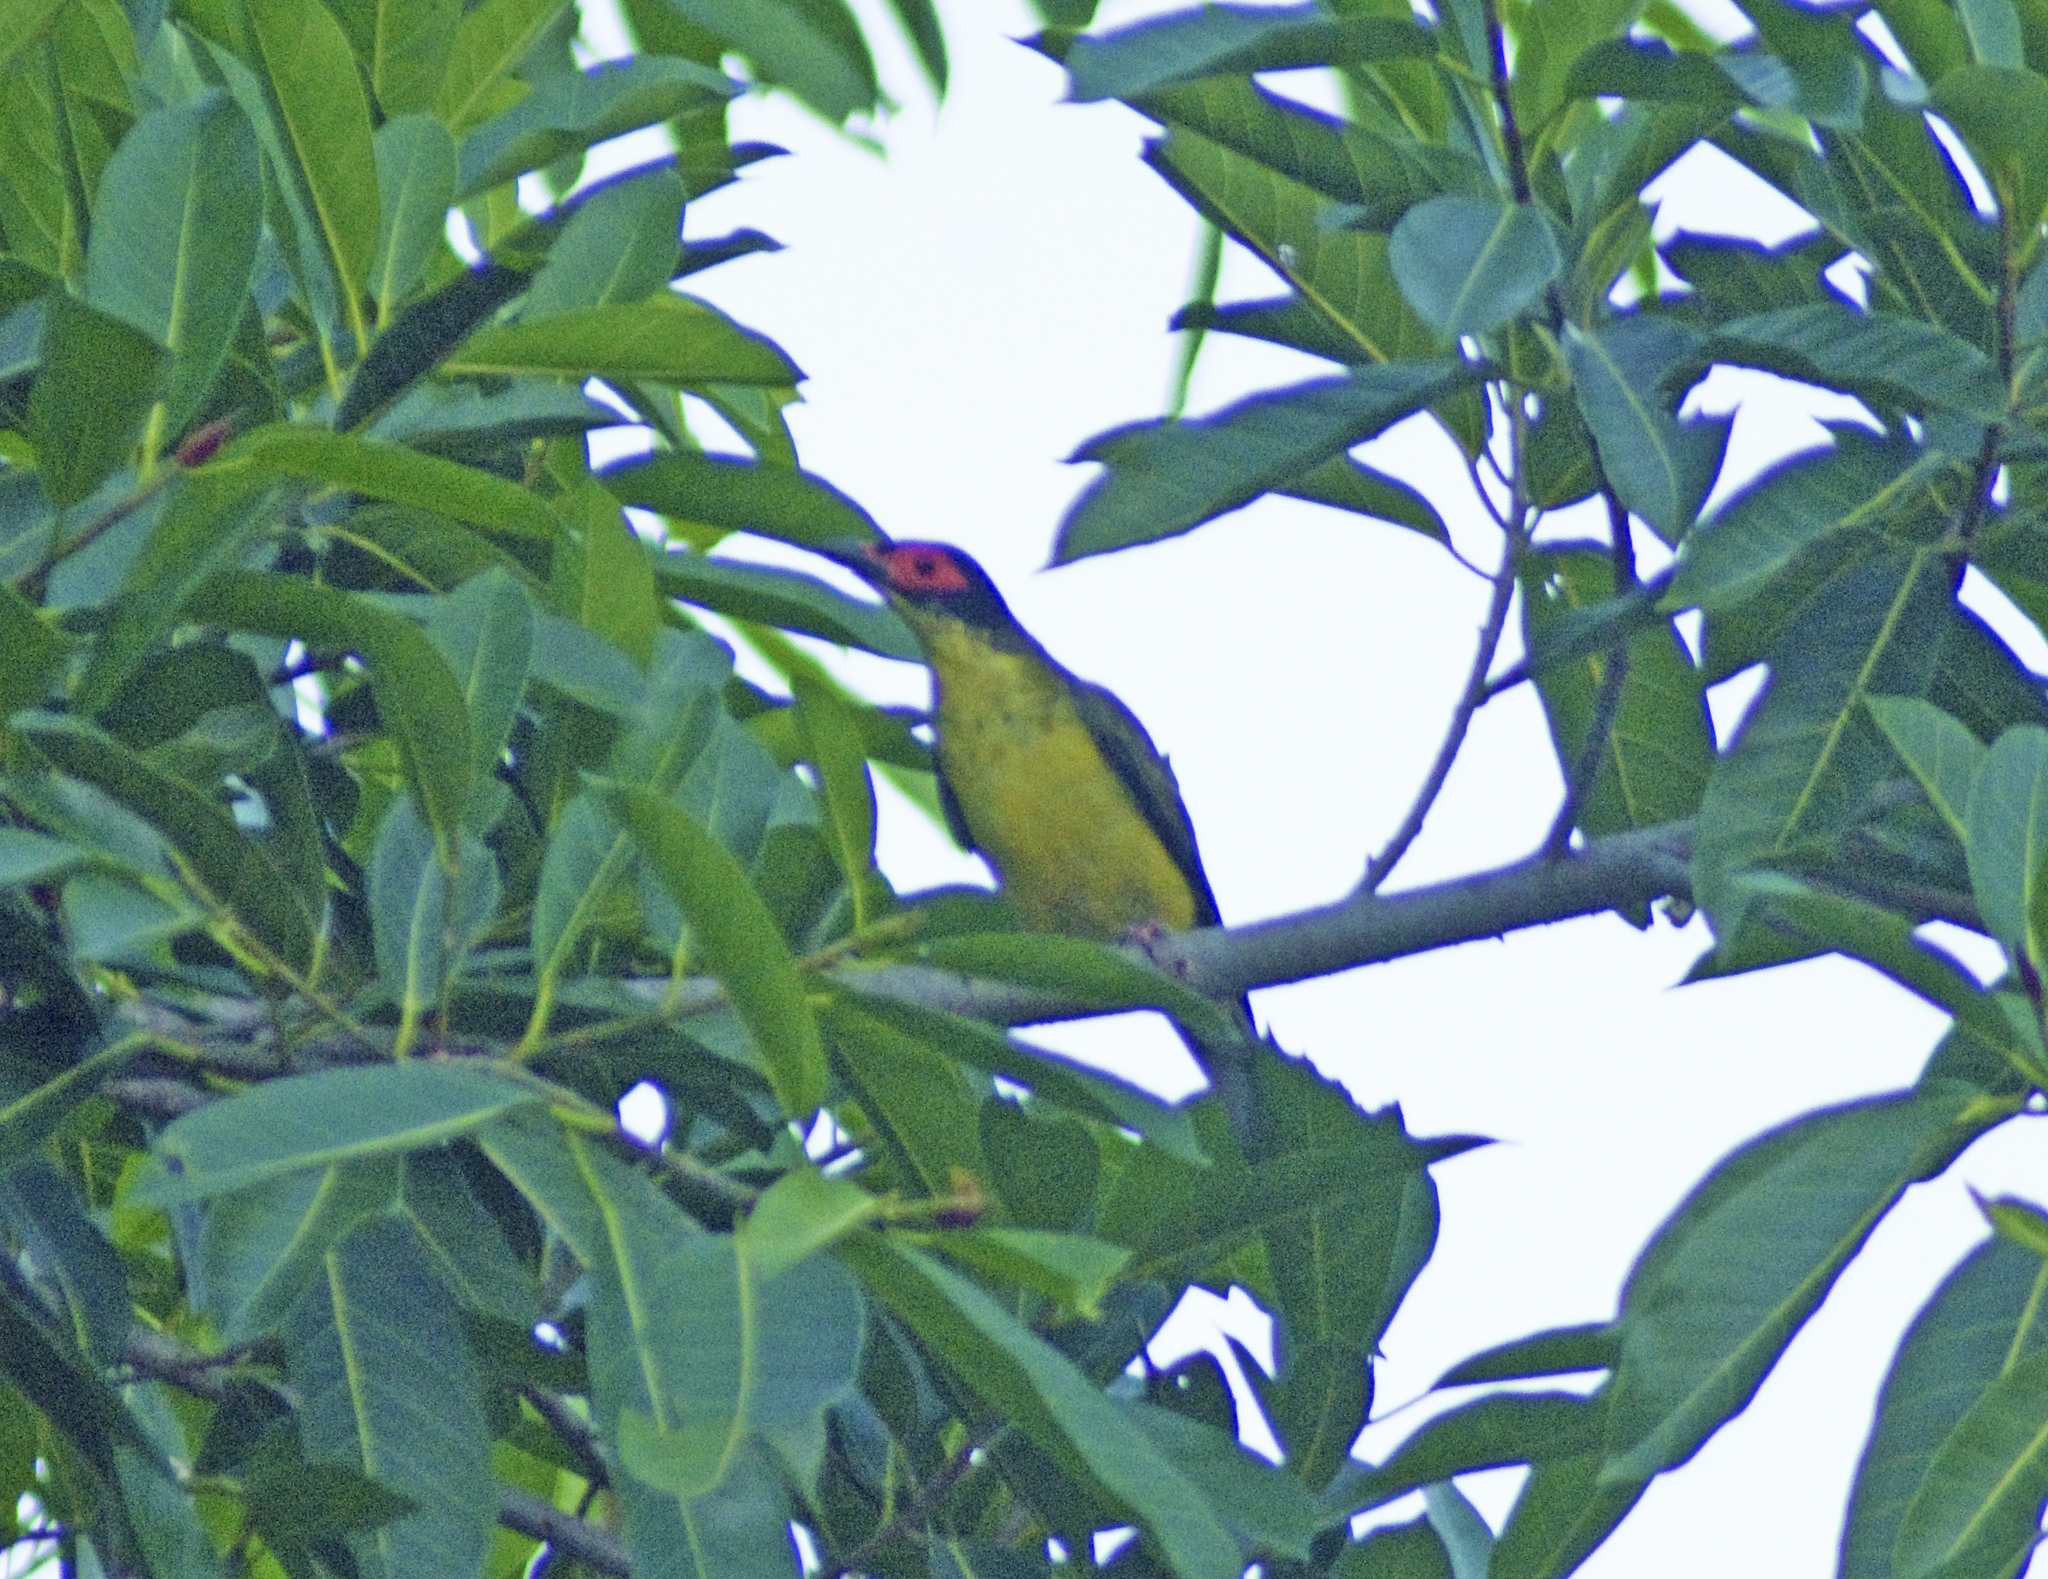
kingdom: Animalia
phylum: Chordata
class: Aves
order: Passeriformes
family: Oriolidae
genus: Sphecotheres
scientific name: Sphecotheres vieilloti
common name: Australasian figbird
